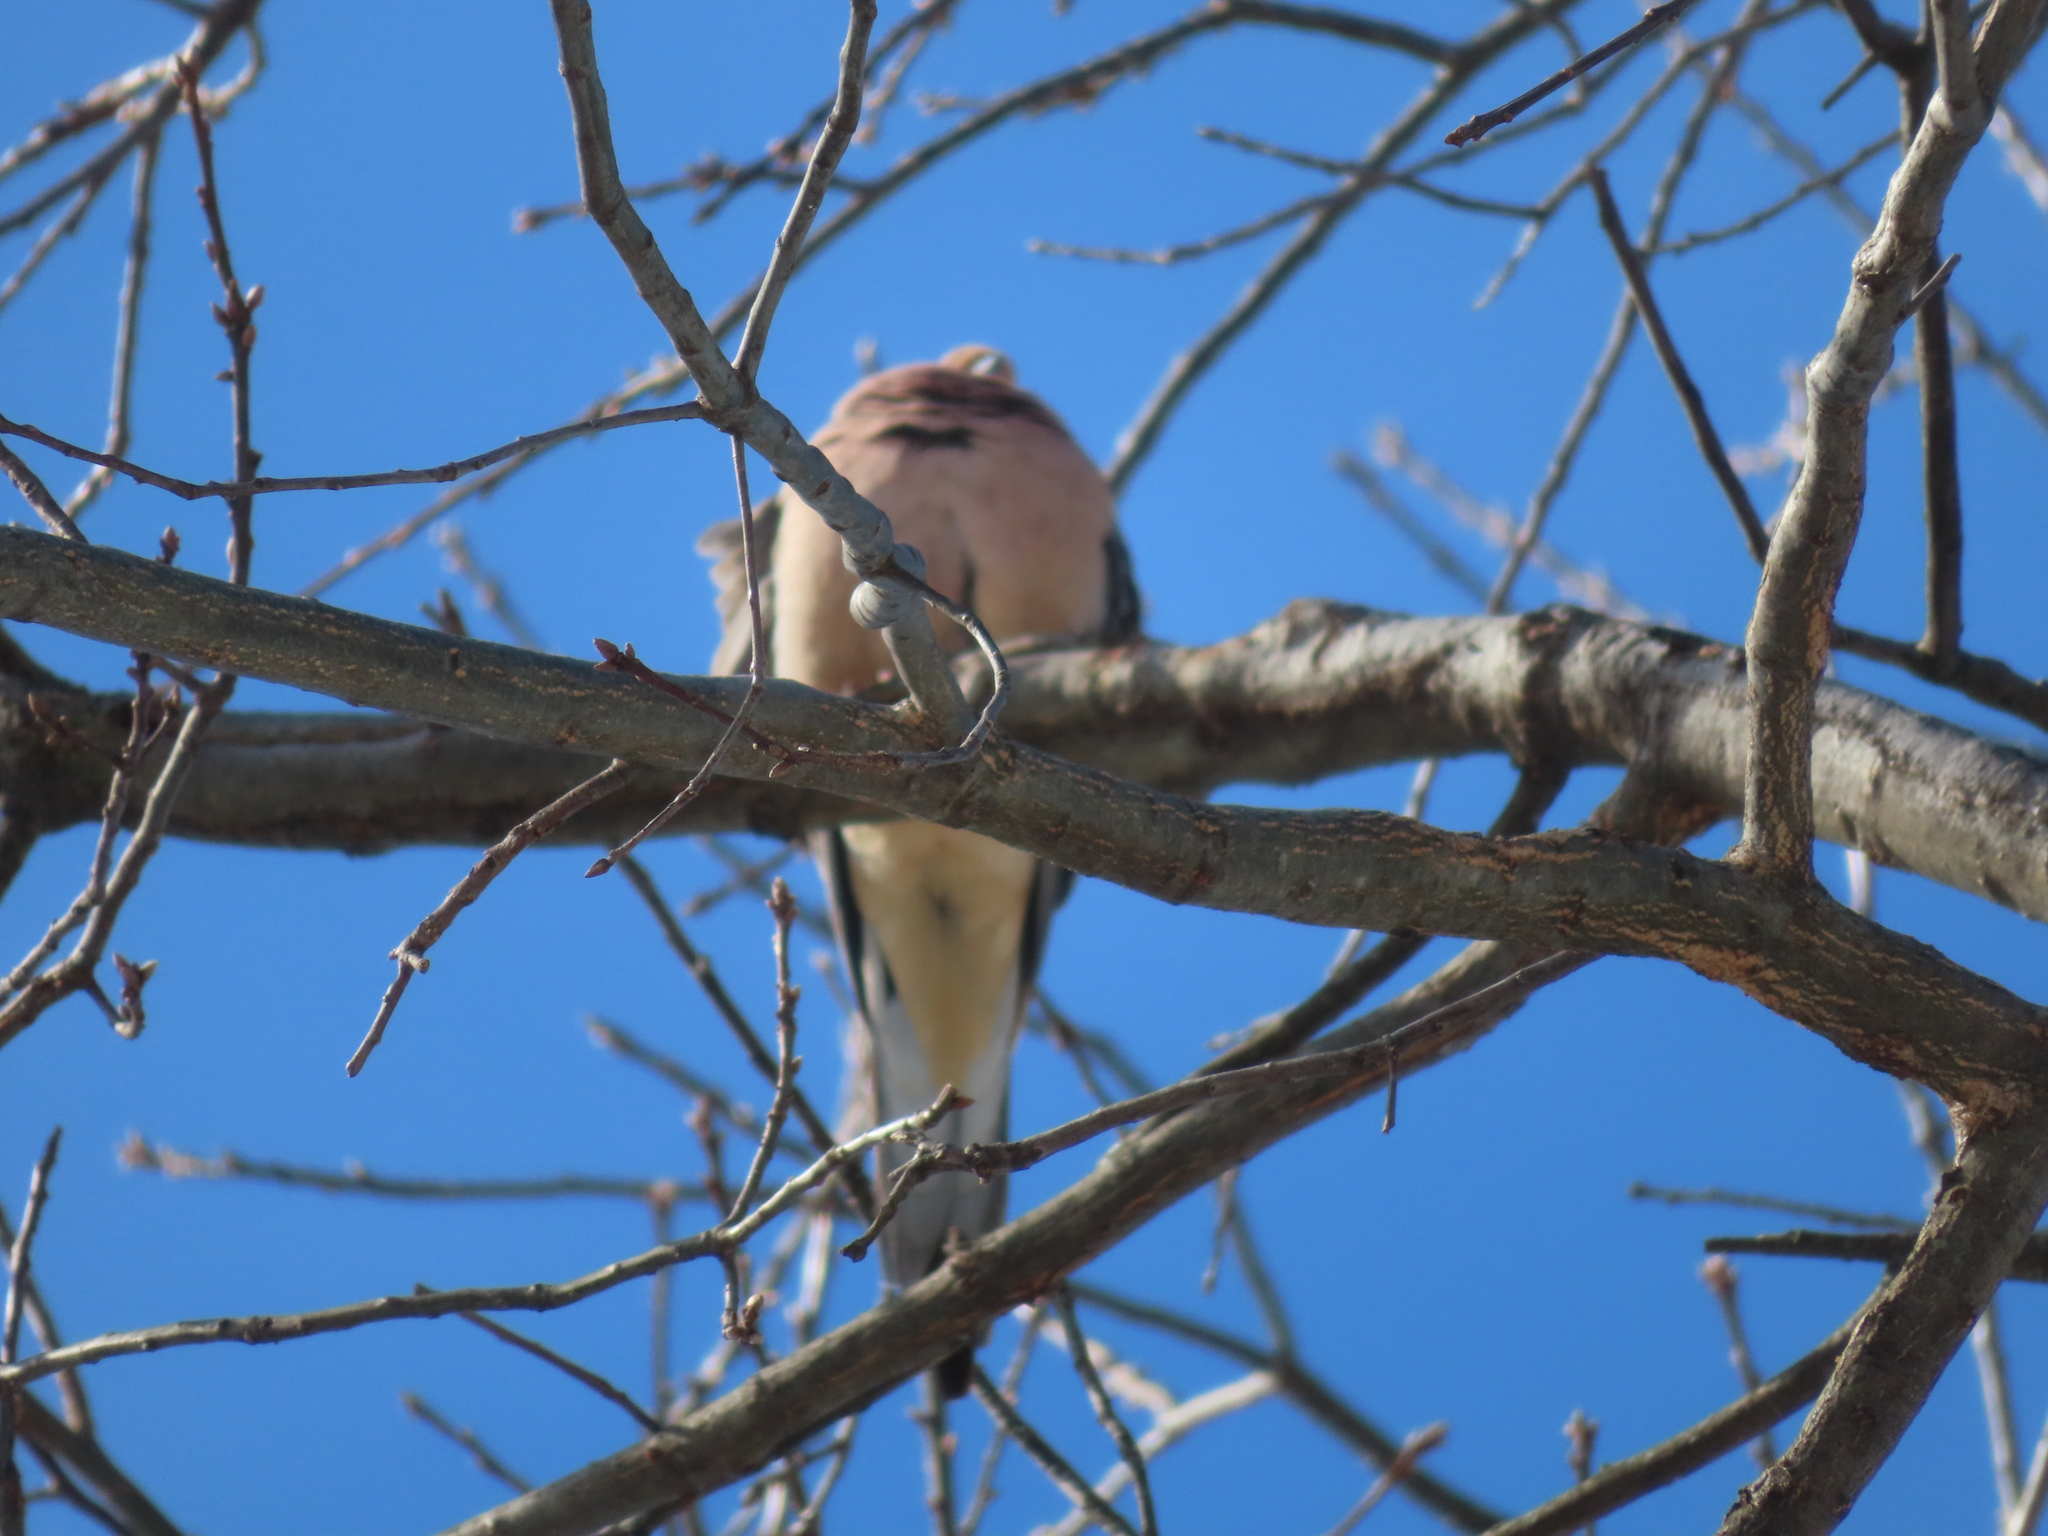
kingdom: Animalia
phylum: Chordata
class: Aves
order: Columbiformes
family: Columbidae
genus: Zenaida
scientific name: Zenaida macroura
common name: Mourning dove
